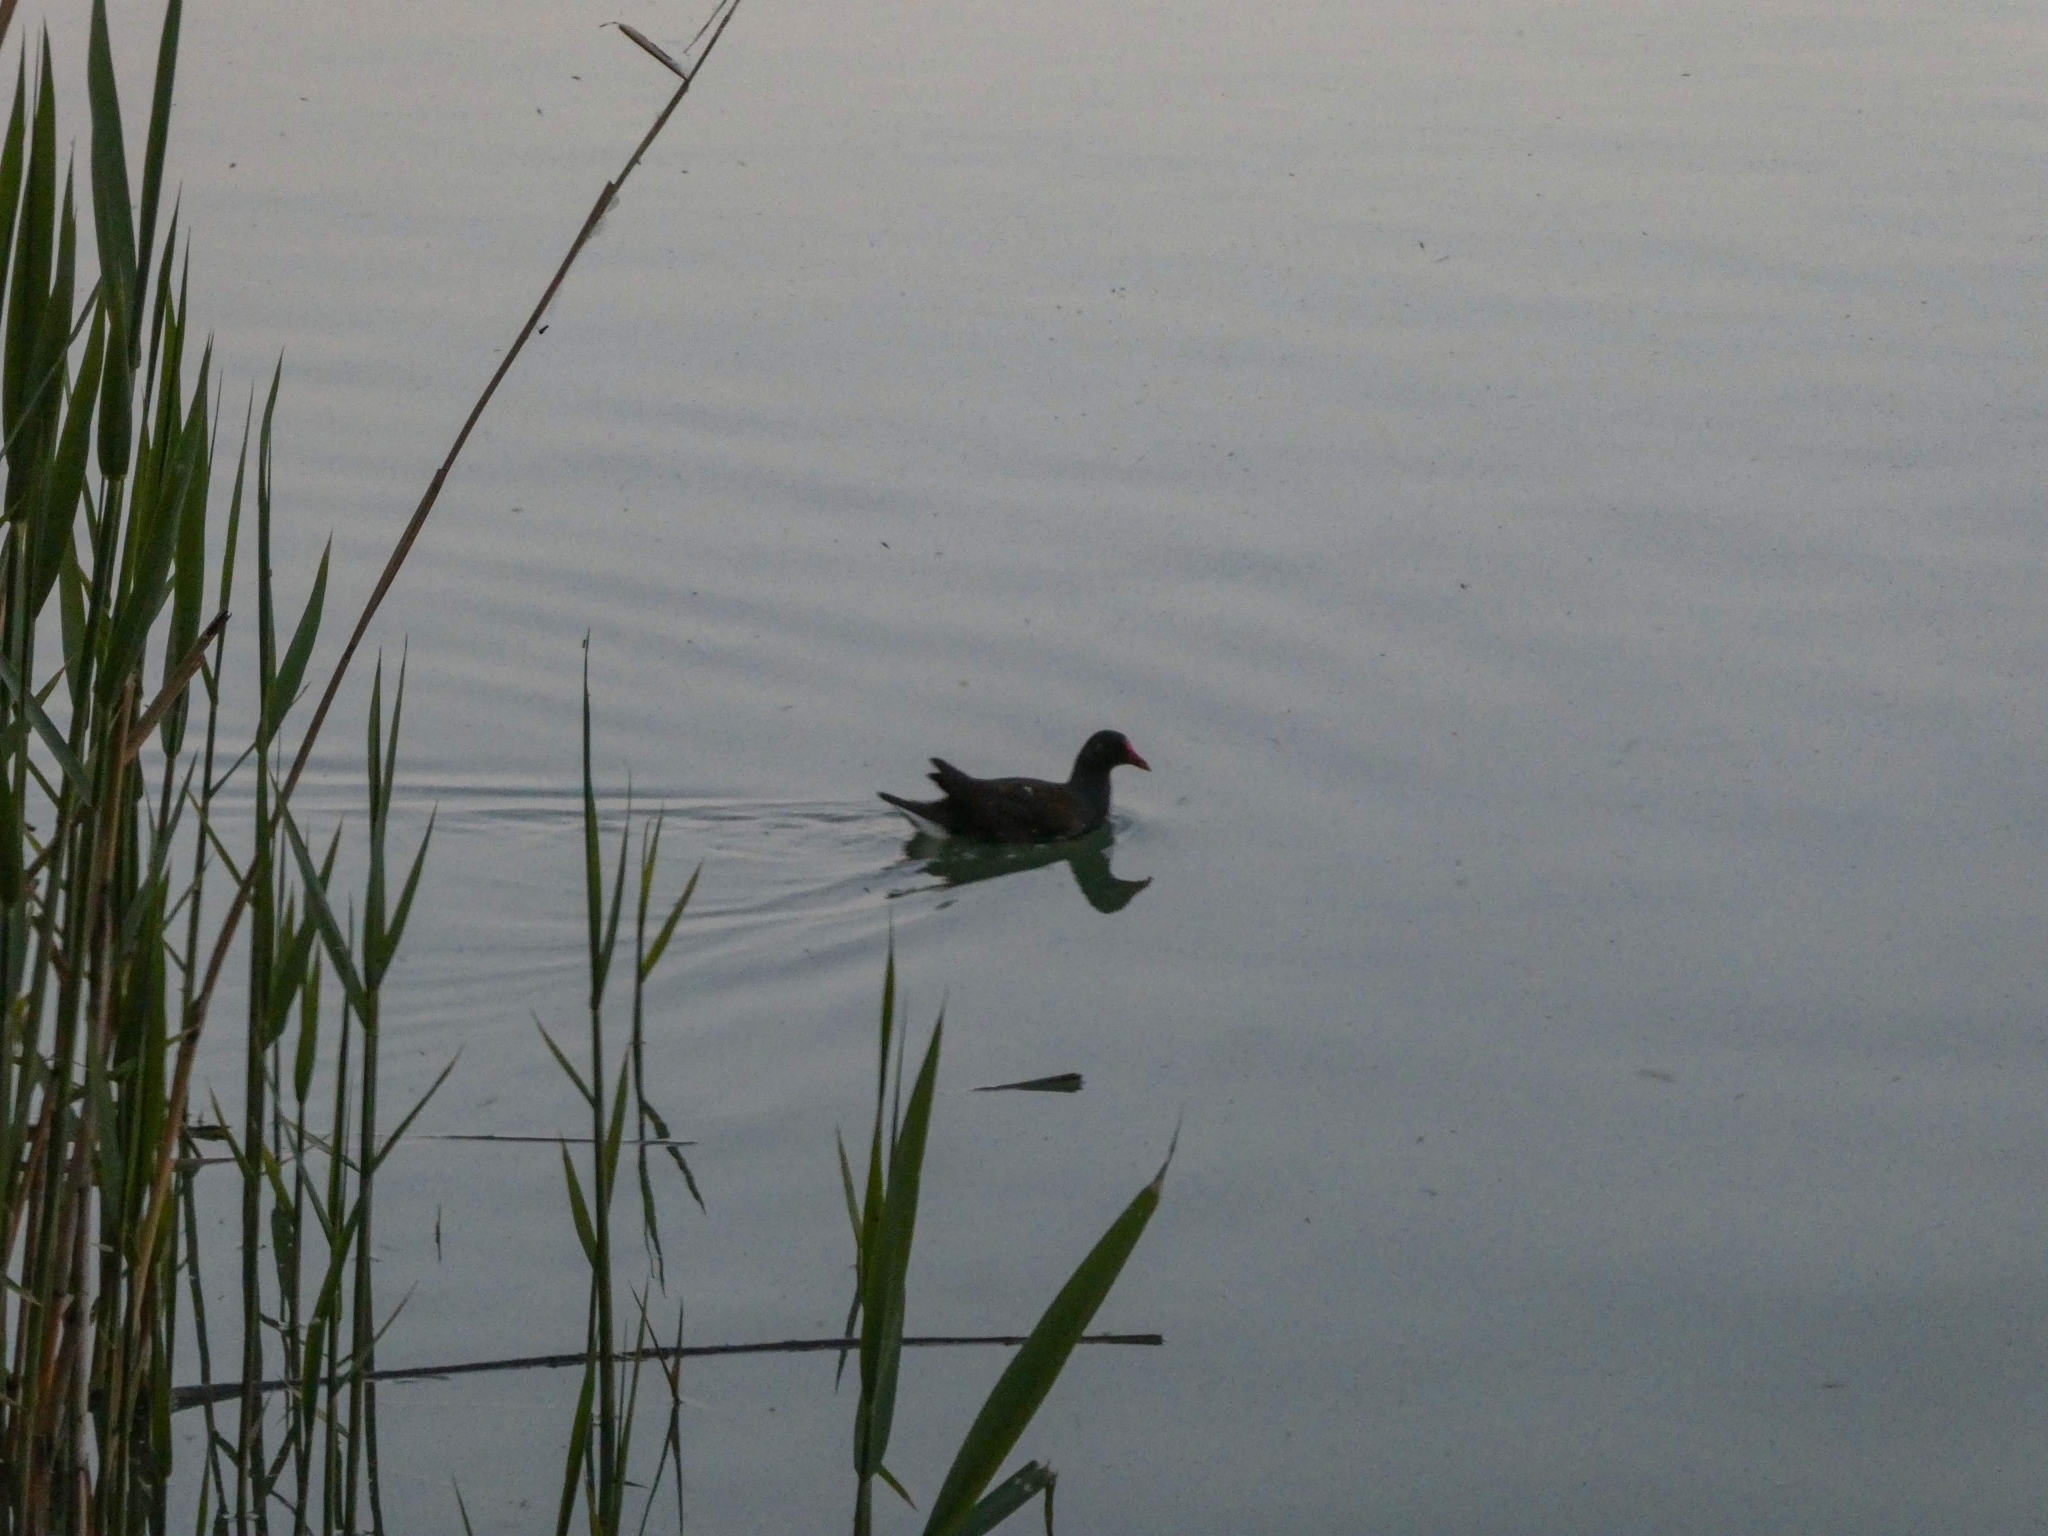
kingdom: Animalia
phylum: Chordata
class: Aves
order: Gruiformes
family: Rallidae
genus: Gallinula
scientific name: Gallinula chloropus
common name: Common moorhen
